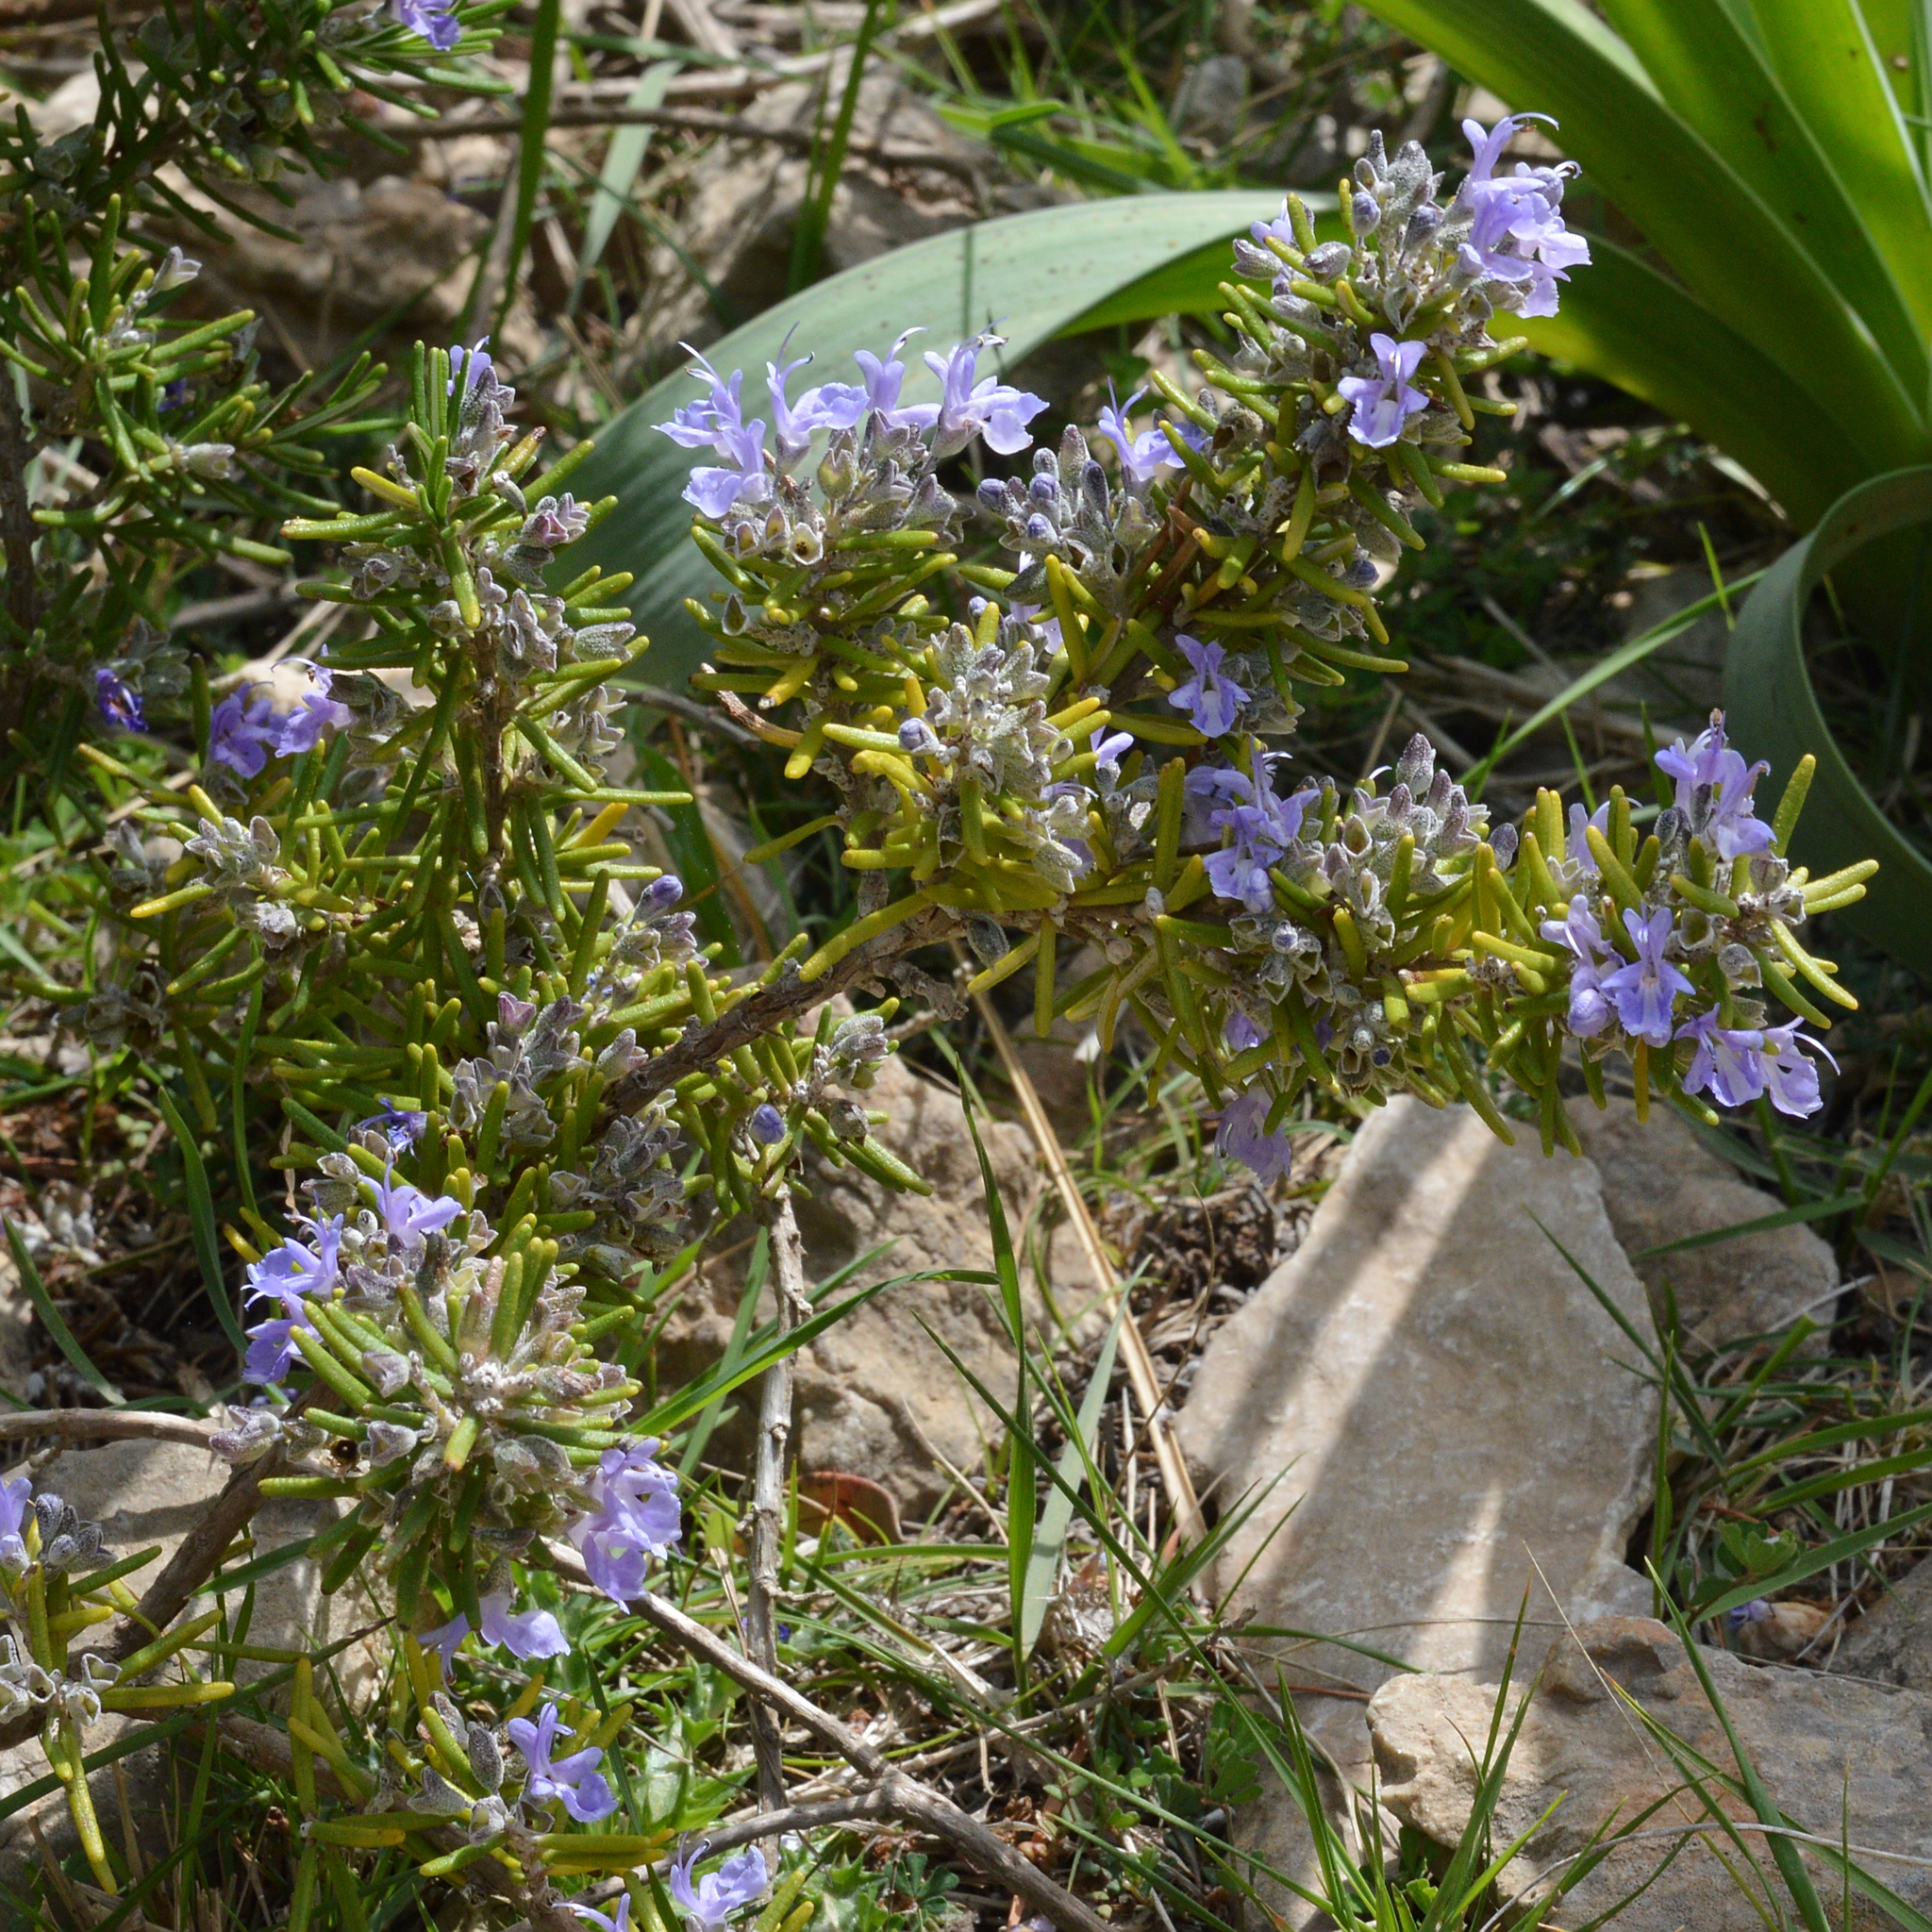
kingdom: Plantae
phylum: Tracheophyta
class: Magnoliopsida
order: Lamiales
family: Lamiaceae
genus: Salvia
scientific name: Salvia rosmarinus
